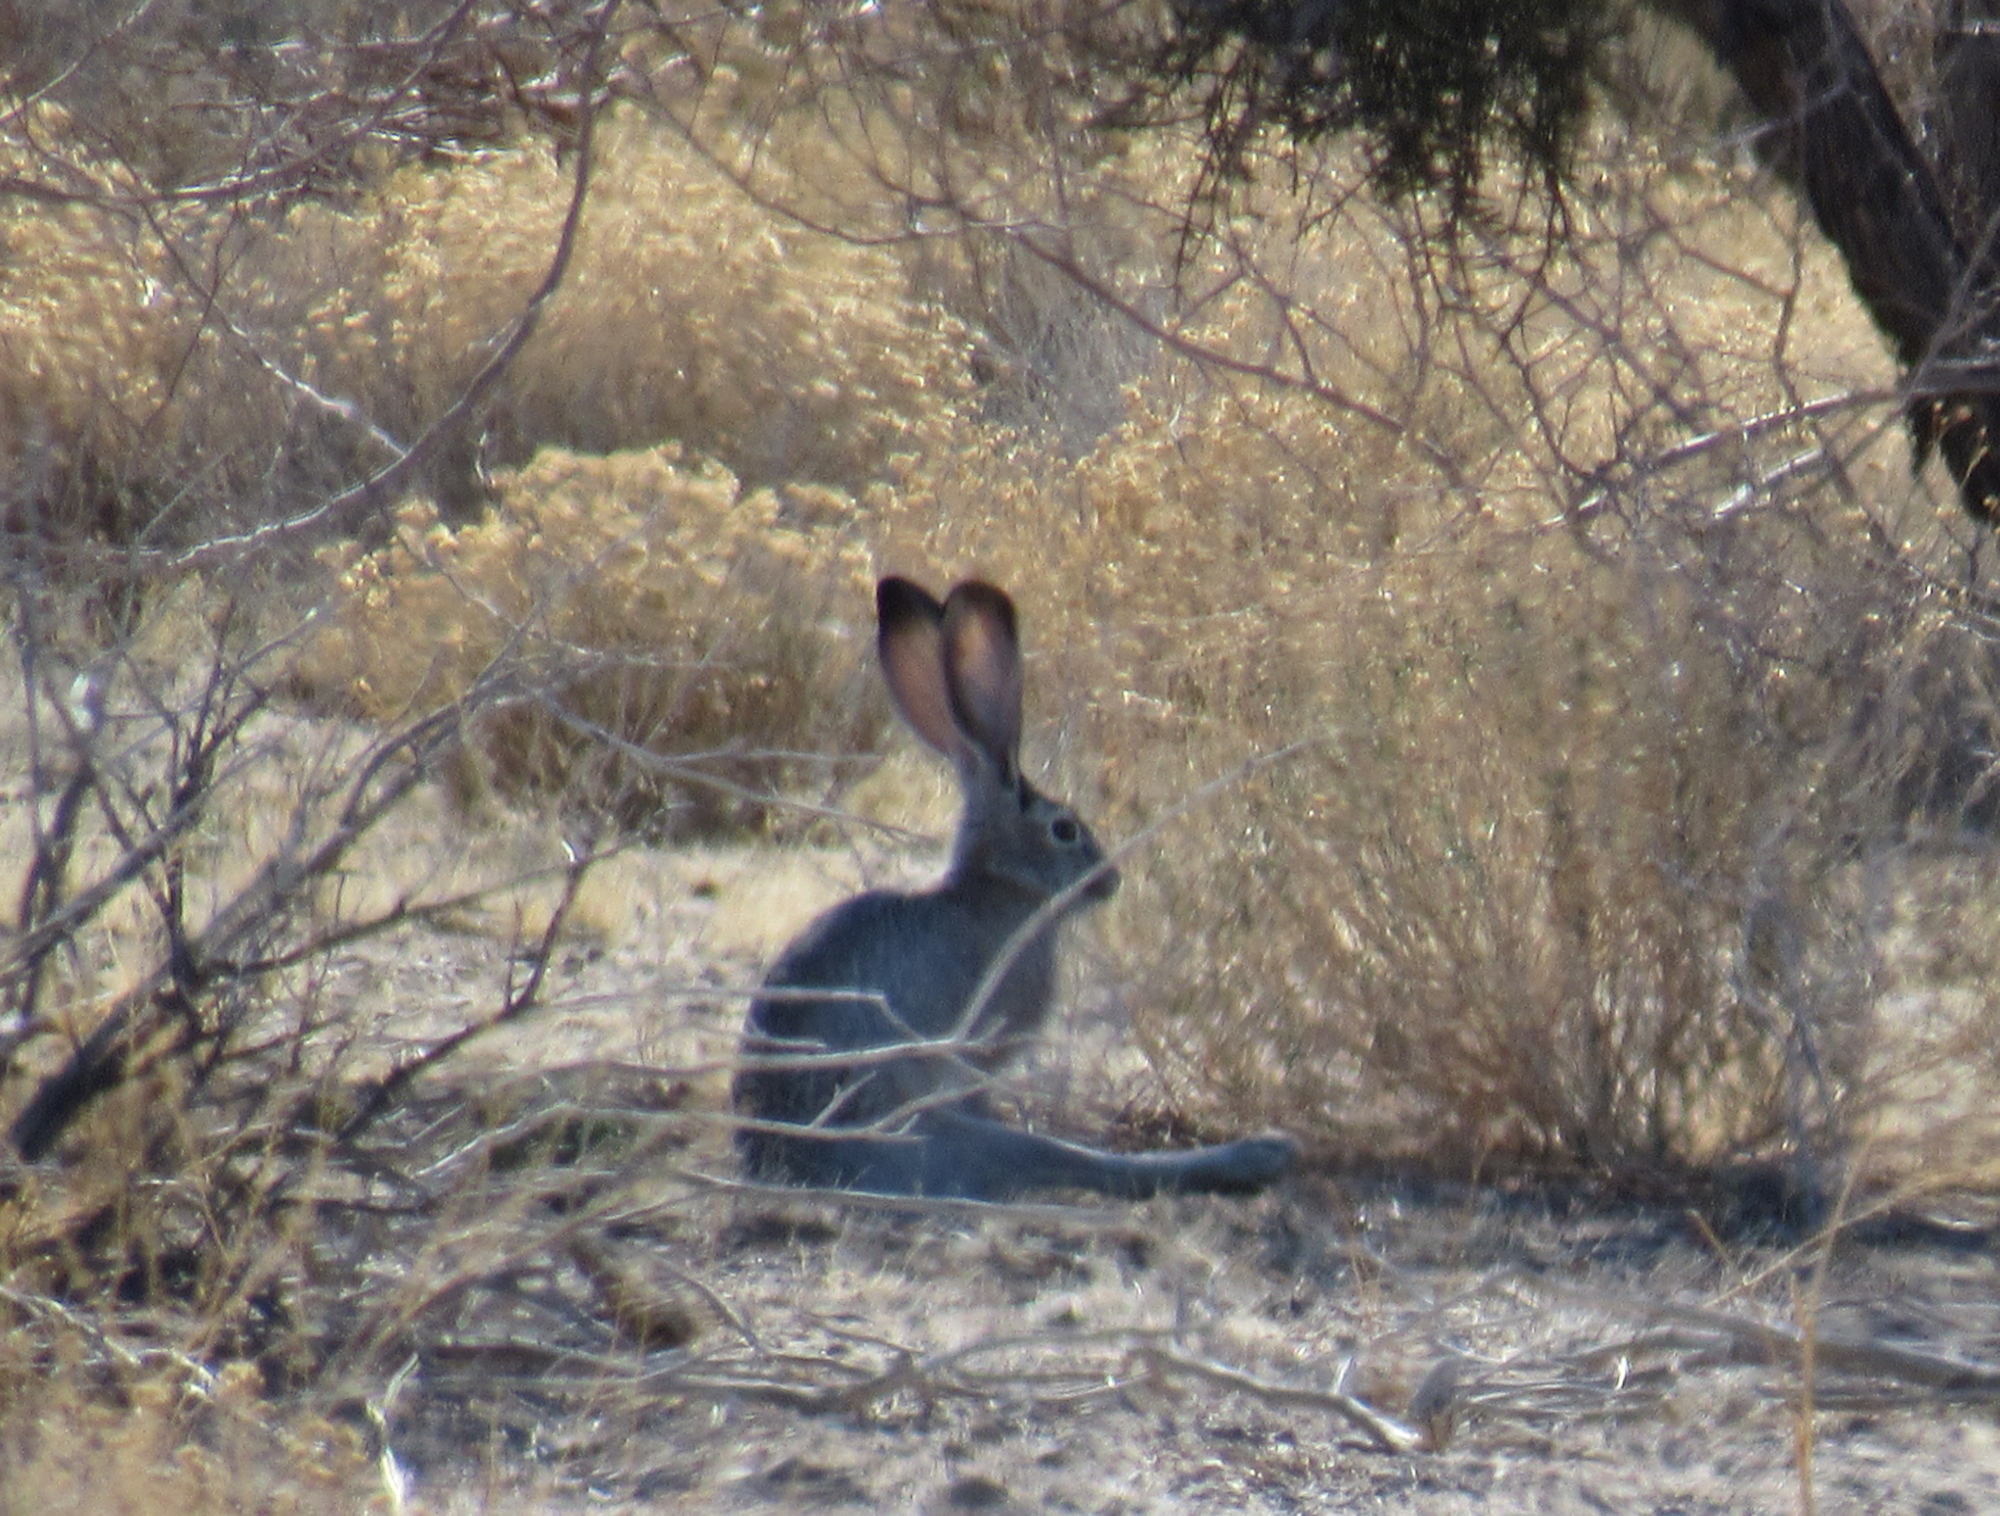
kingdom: Animalia
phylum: Chordata
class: Mammalia
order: Lagomorpha
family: Leporidae
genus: Lepus
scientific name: Lepus californicus
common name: Black-tailed jackrabbit
